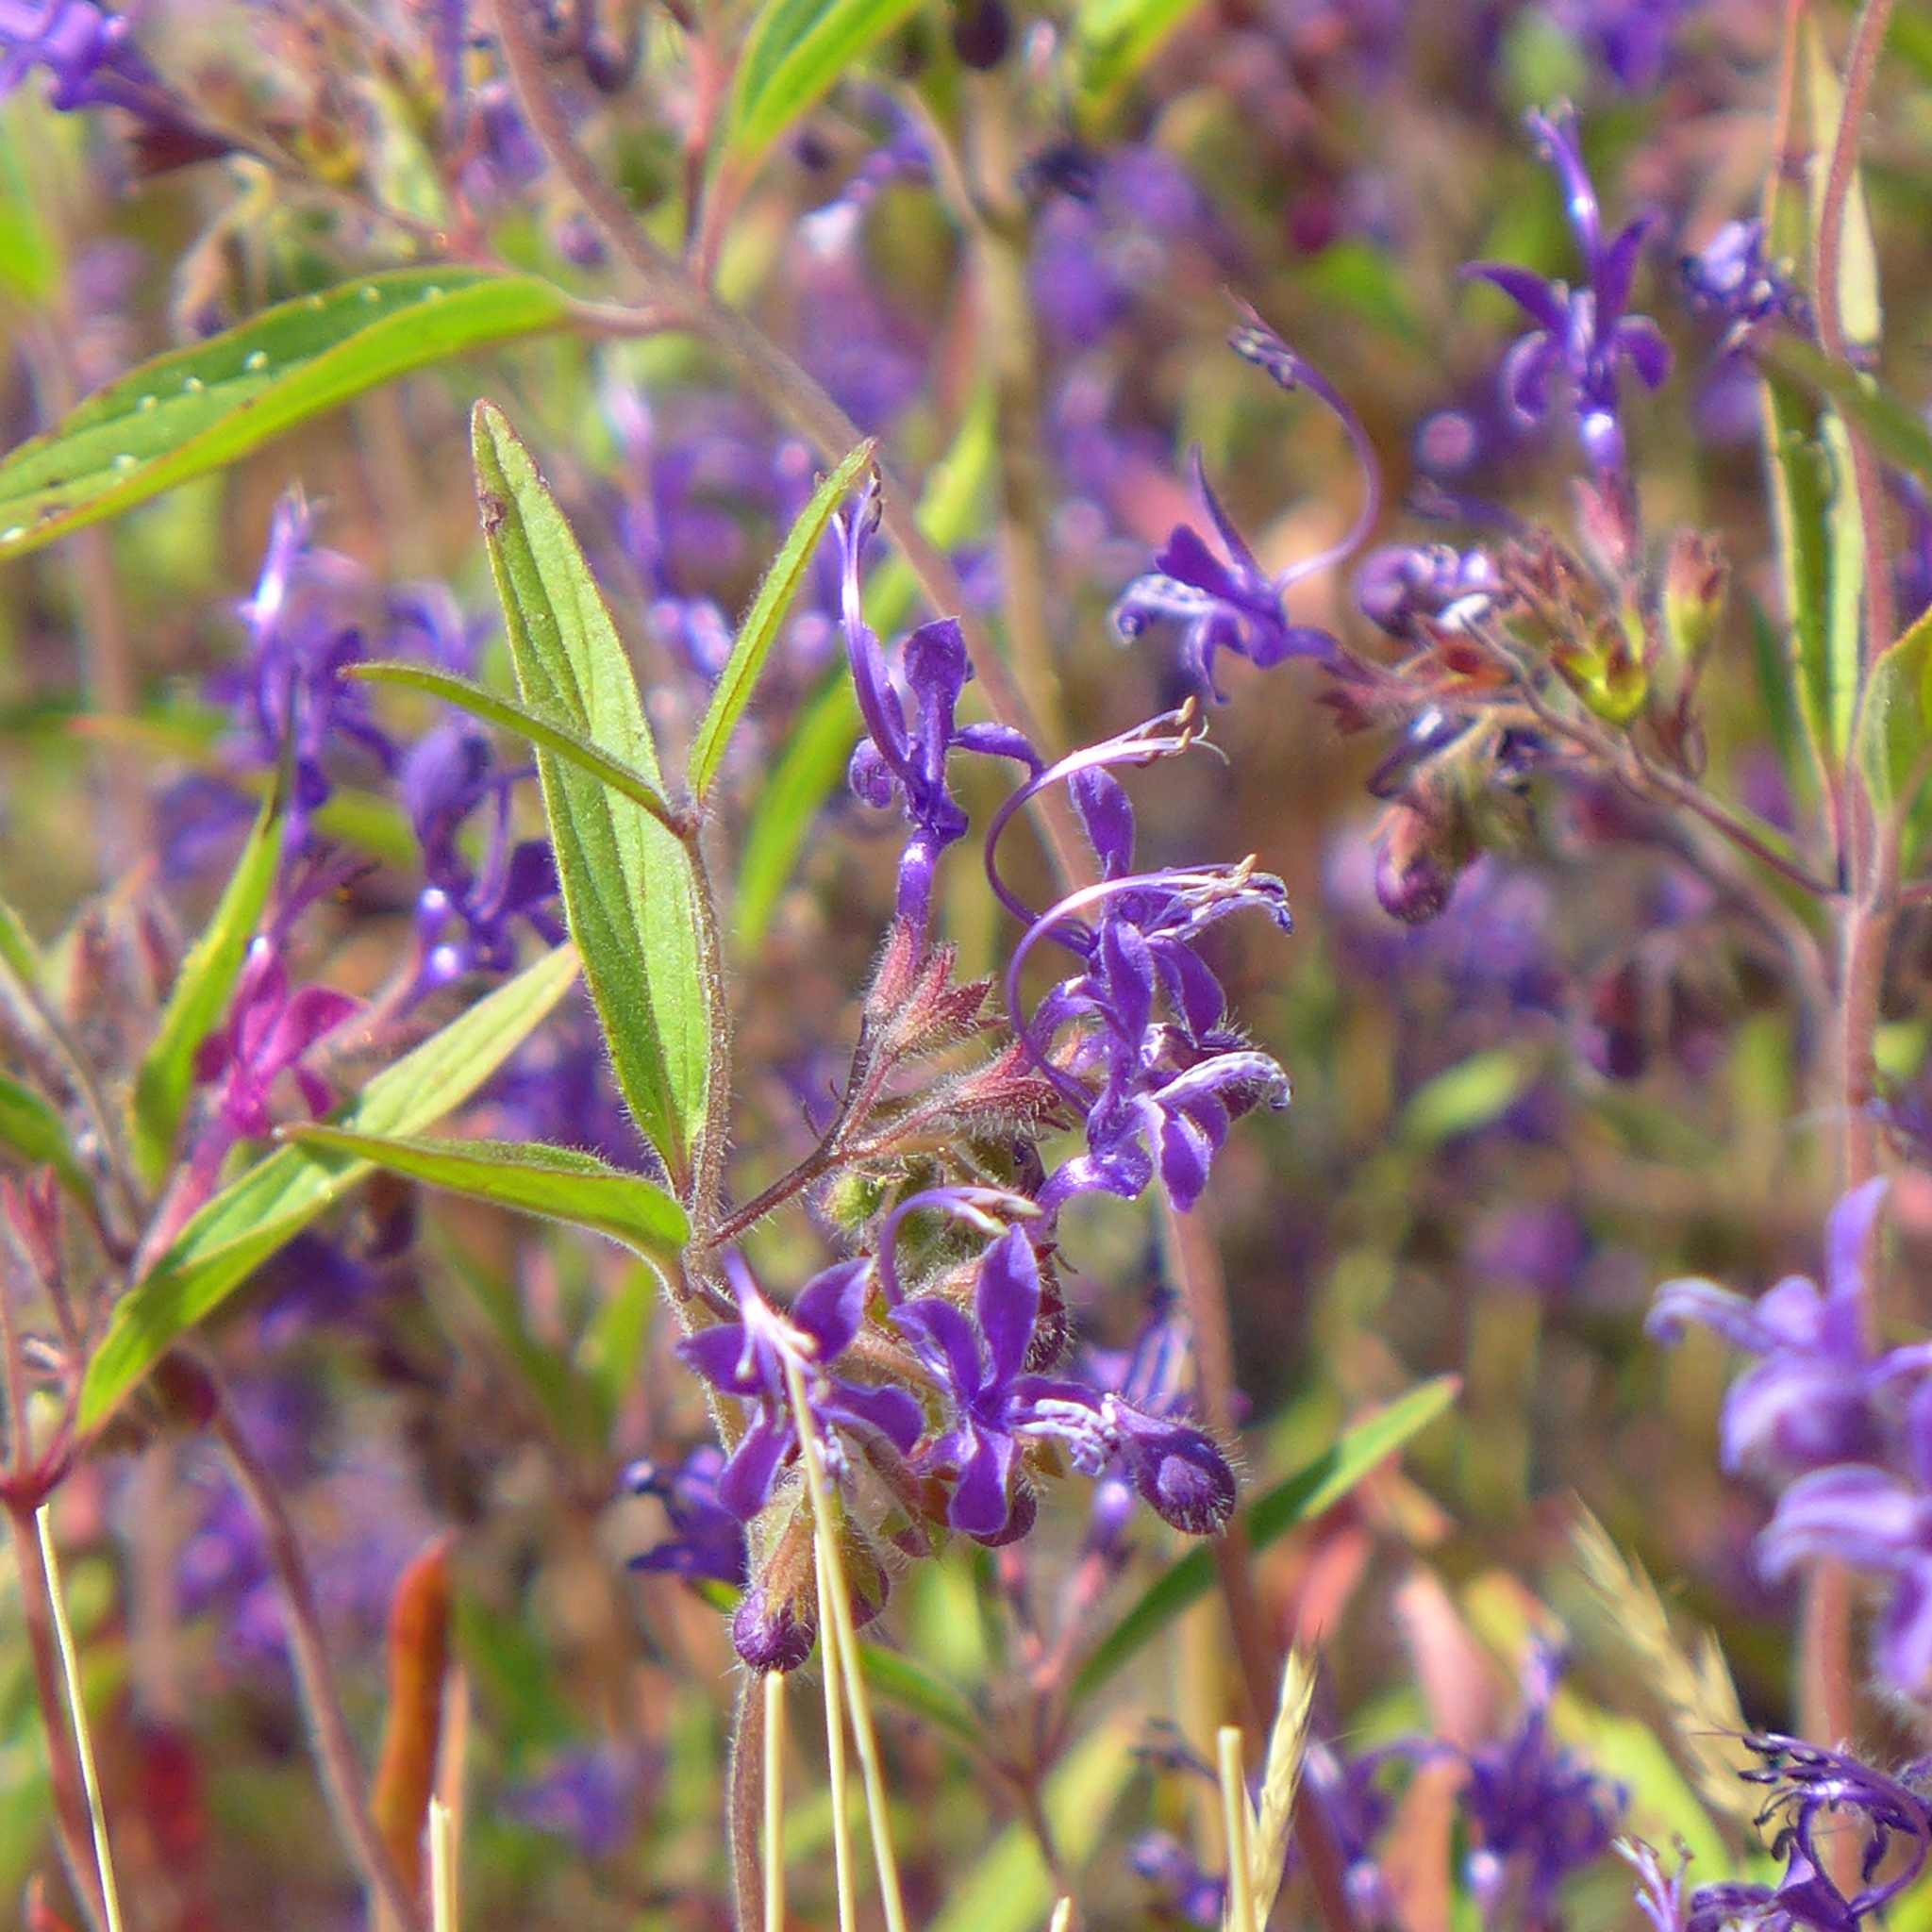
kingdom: Plantae
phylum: Tracheophyta
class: Magnoliopsida
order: Lamiales
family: Lamiaceae
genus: Trichostema
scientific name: Trichostema laxum
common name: Turpentine weed
